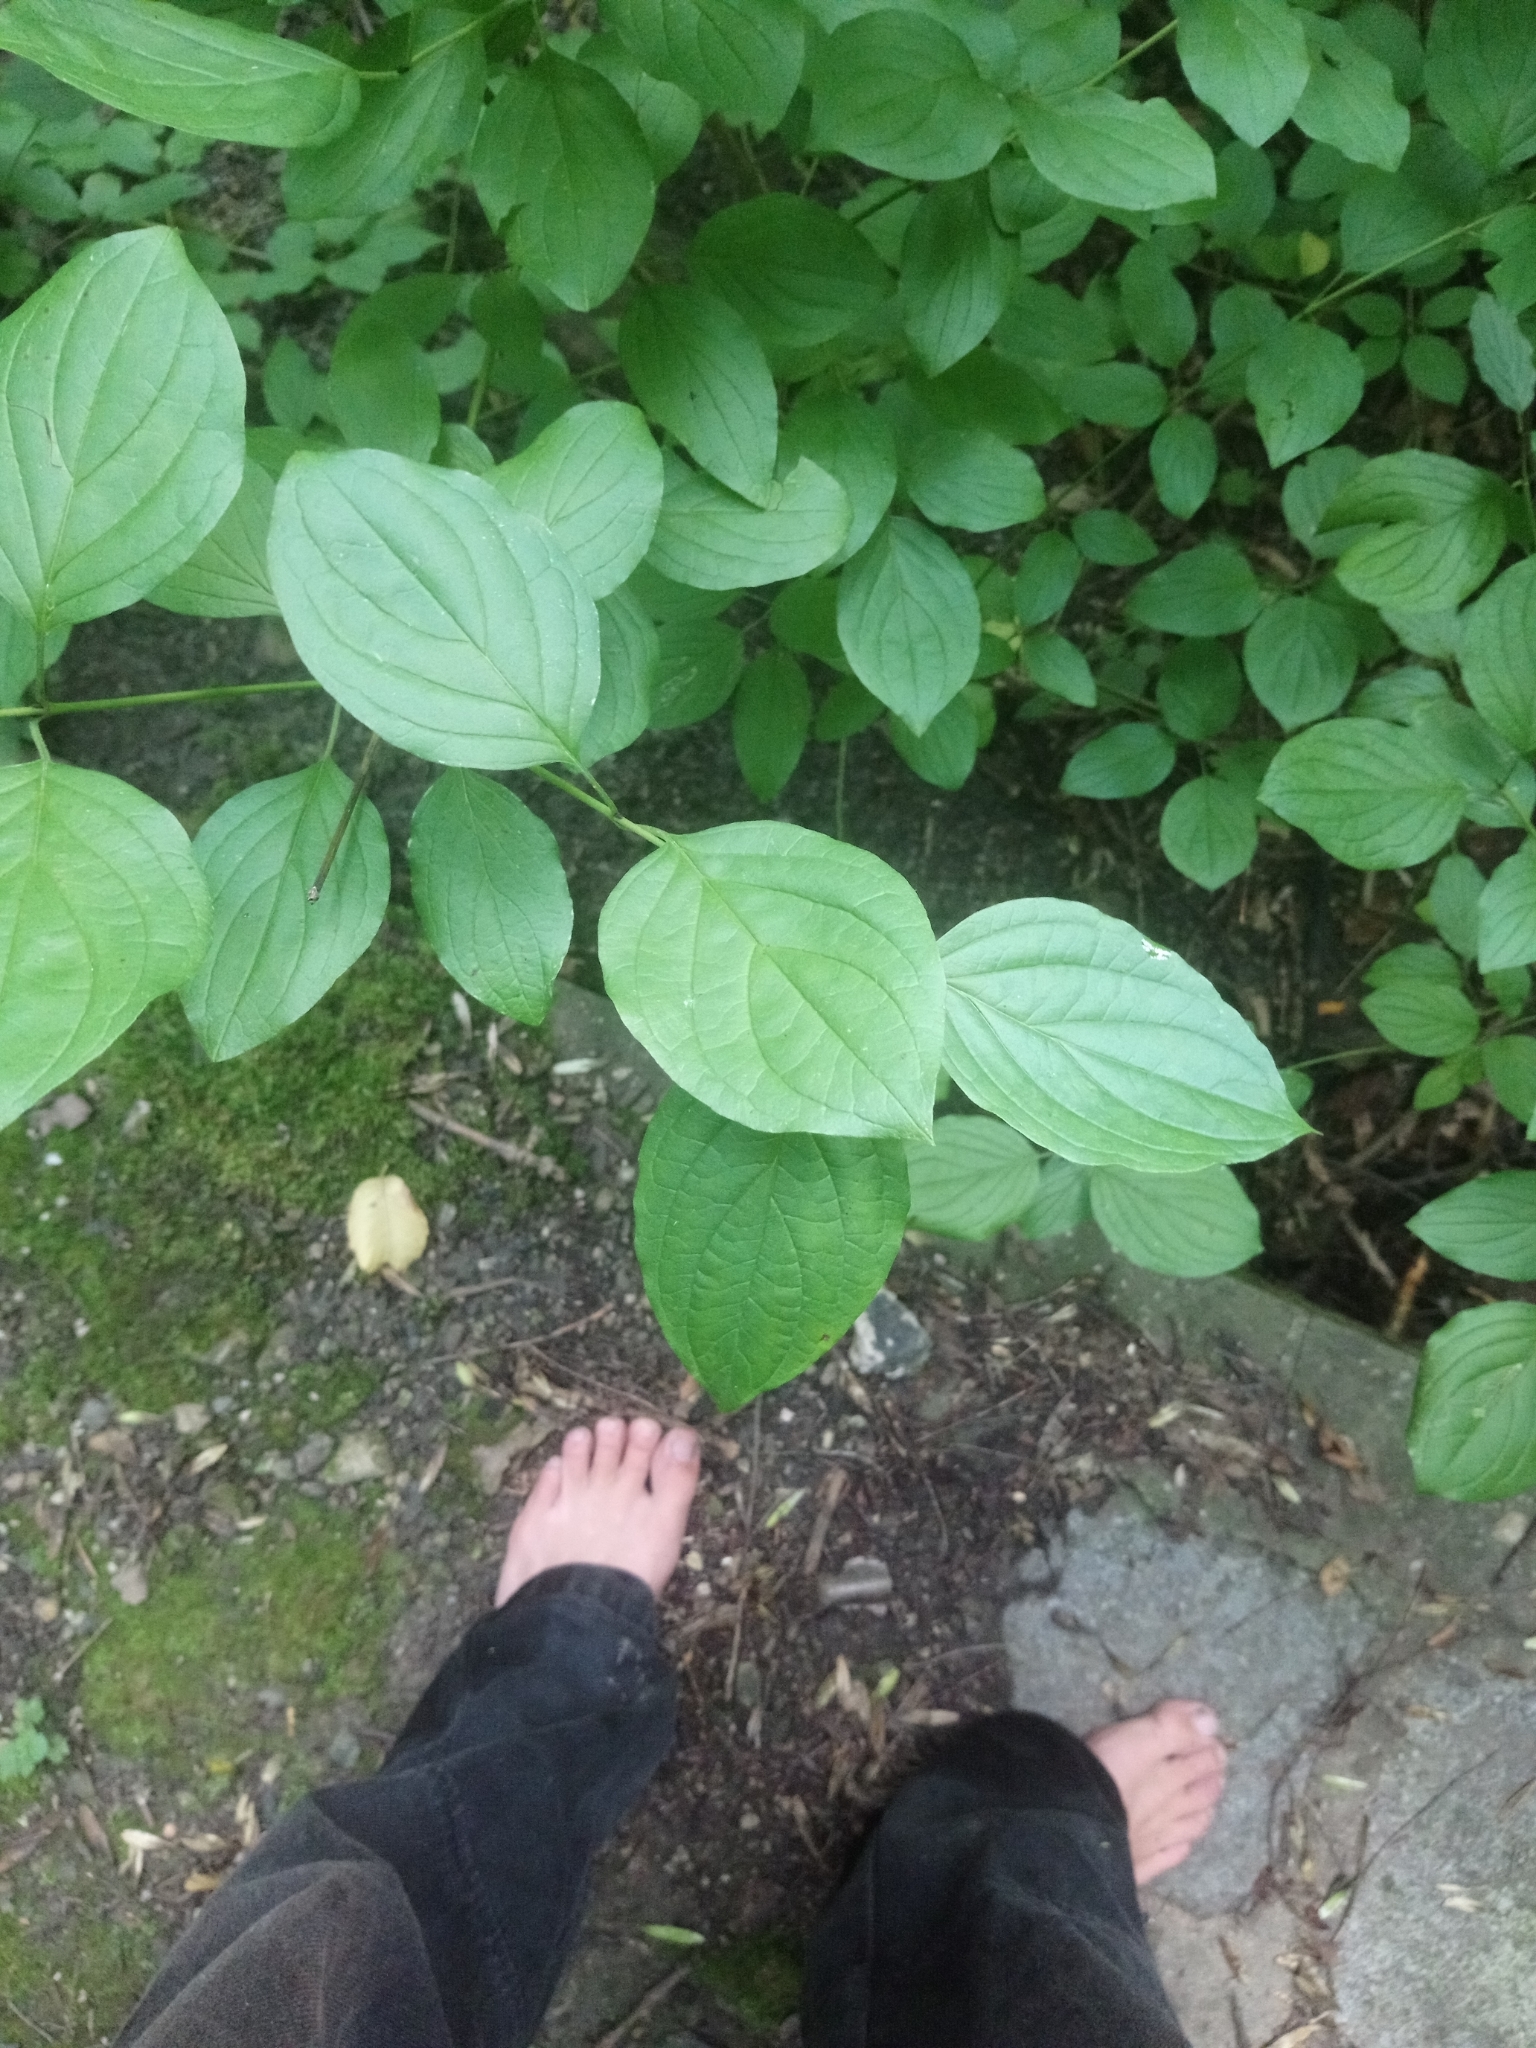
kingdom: Plantae
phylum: Tracheophyta
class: Magnoliopsida
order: Cornales
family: Cornaceae
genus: Cornus
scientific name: Cornus sanguinea
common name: Dogwood
